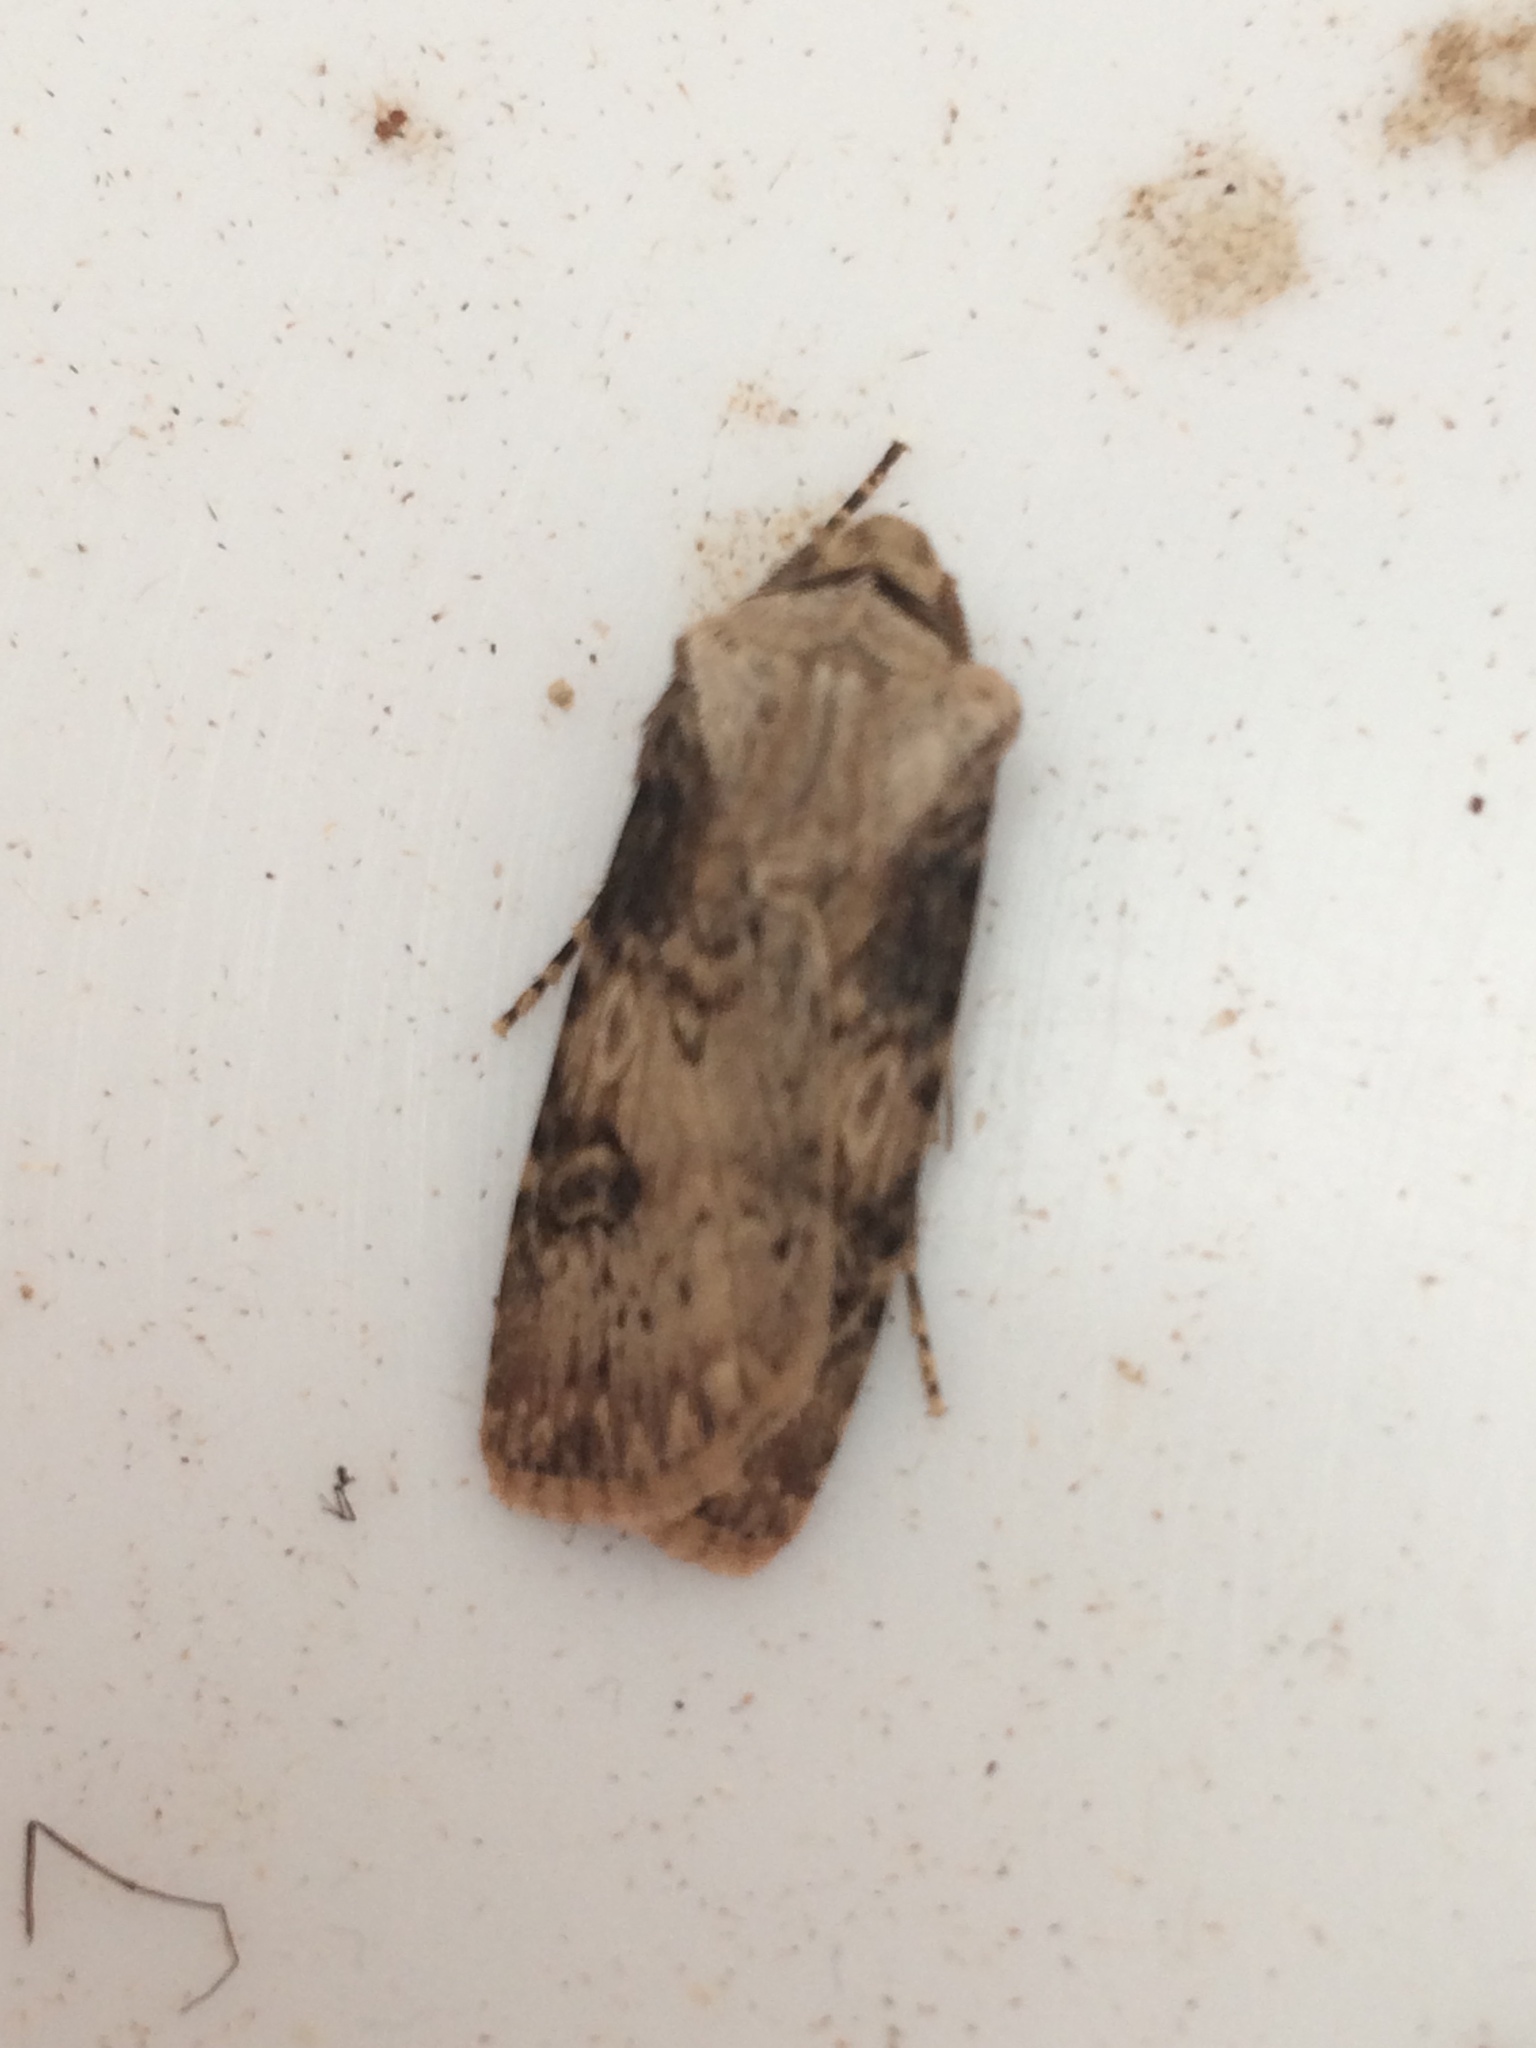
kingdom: Animalia
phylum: Arthropoda
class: Insecta
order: Lepidoptera
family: Noctuidae
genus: Agrotis
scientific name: Agrotis puta
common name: Shuttle-shaped dart
